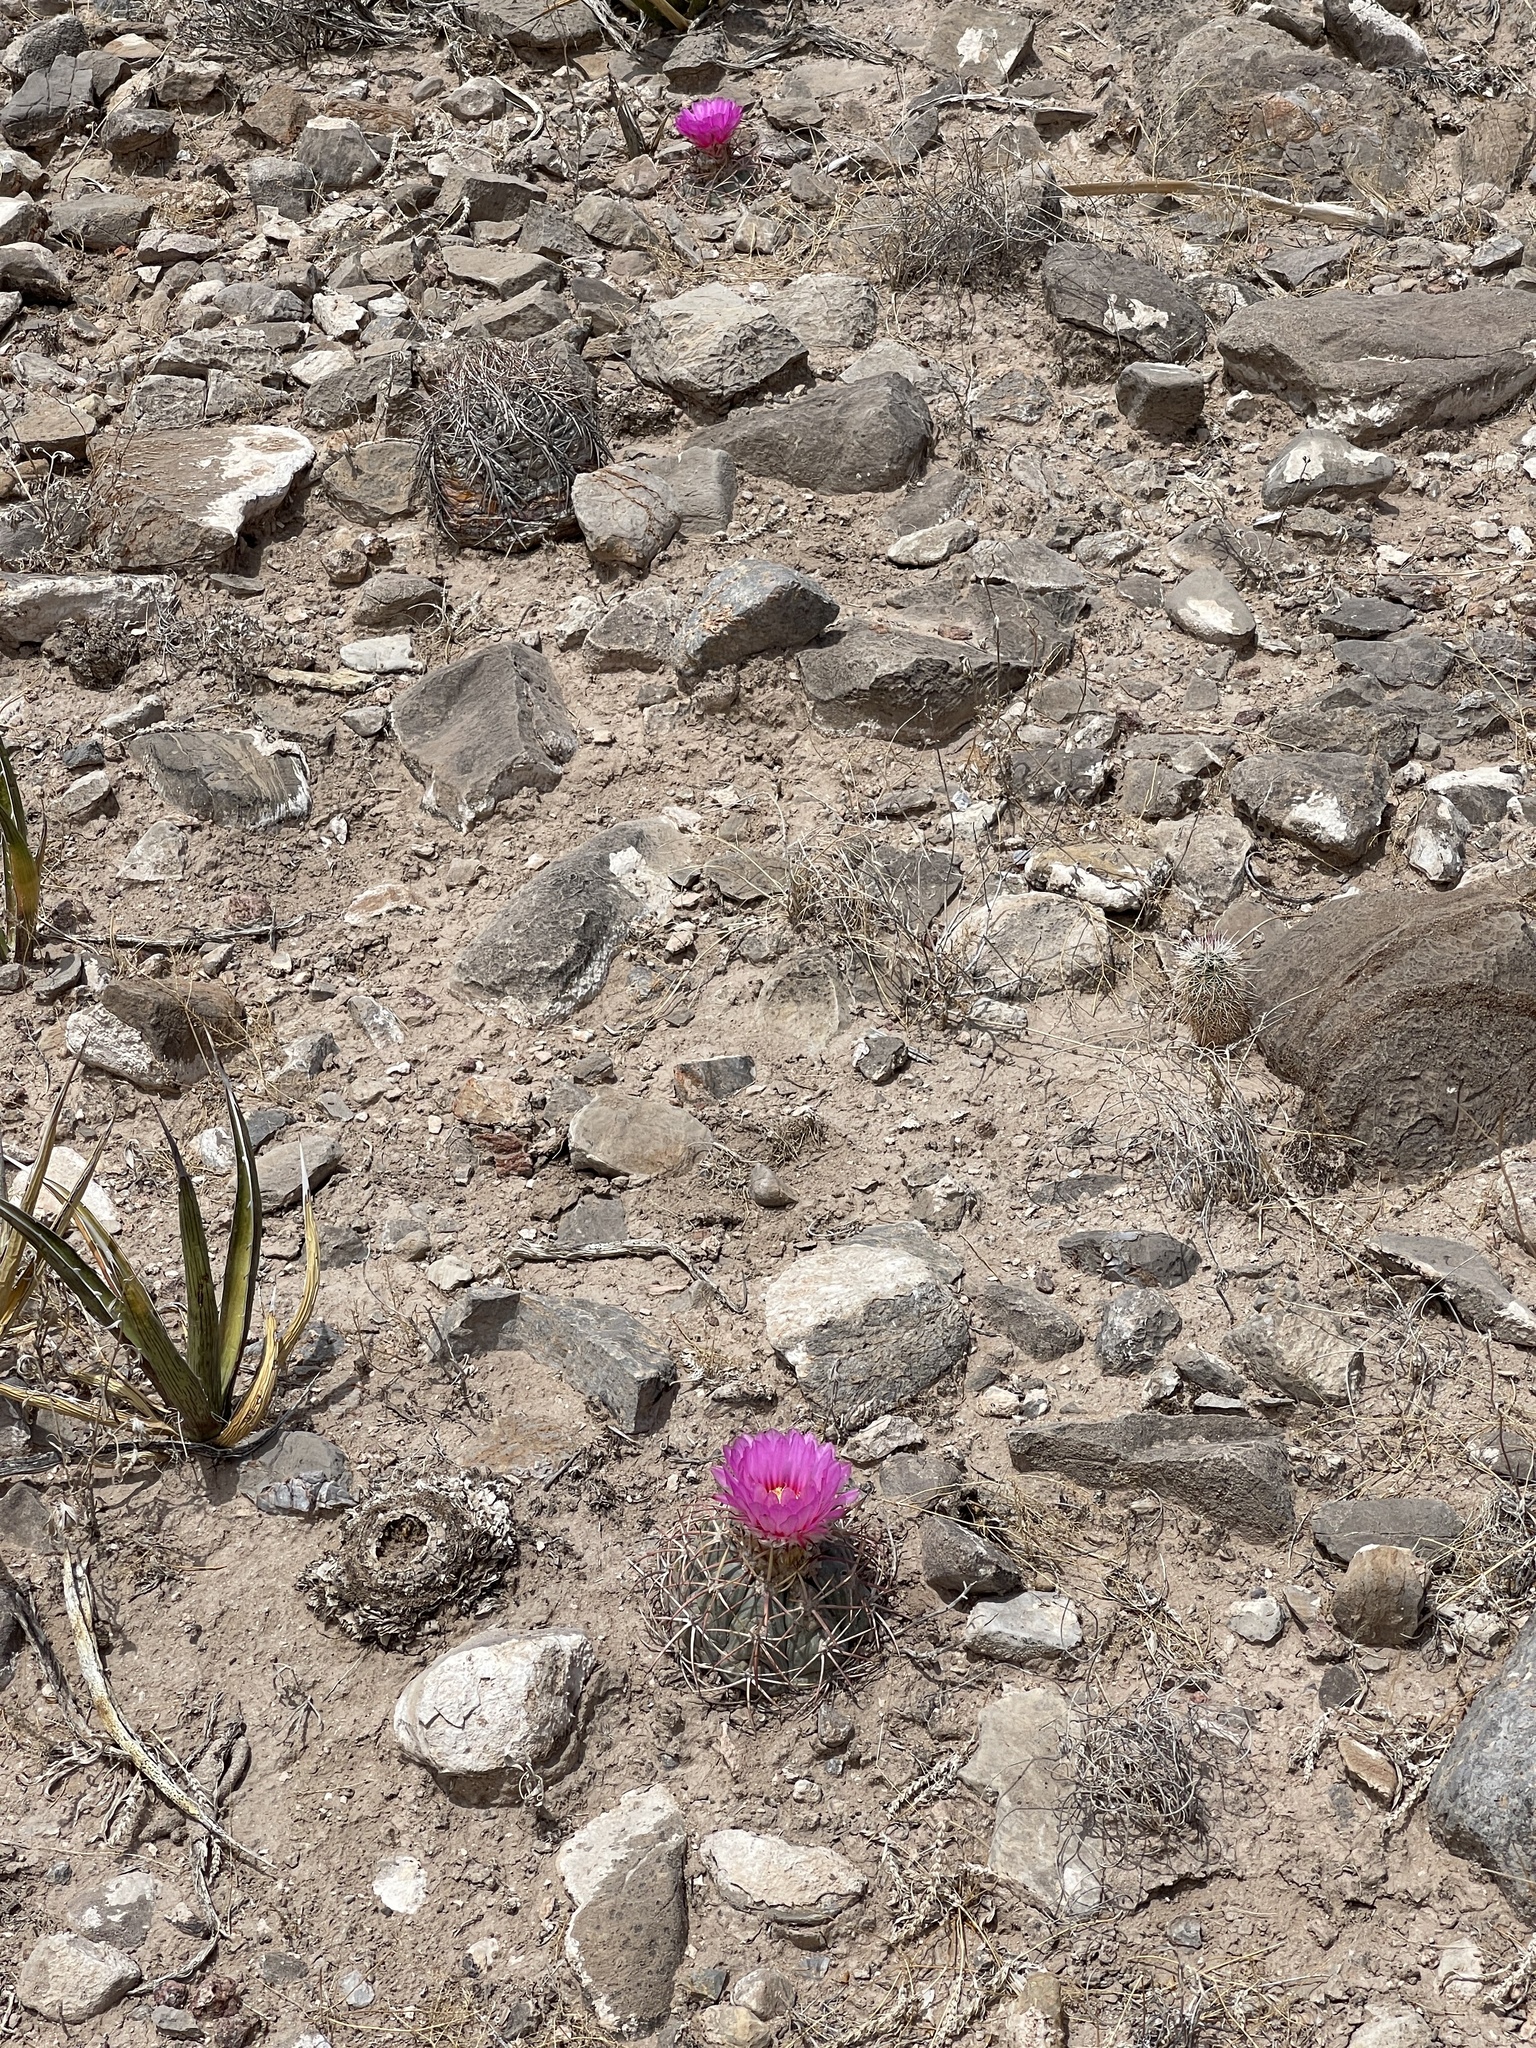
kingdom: Plantae
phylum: Tracheophyta
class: Magnoliopsida
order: Caryophyllales
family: Cactaceae
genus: Echinocactus
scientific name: Echinocactus horizonthalonius
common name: Devilshead
